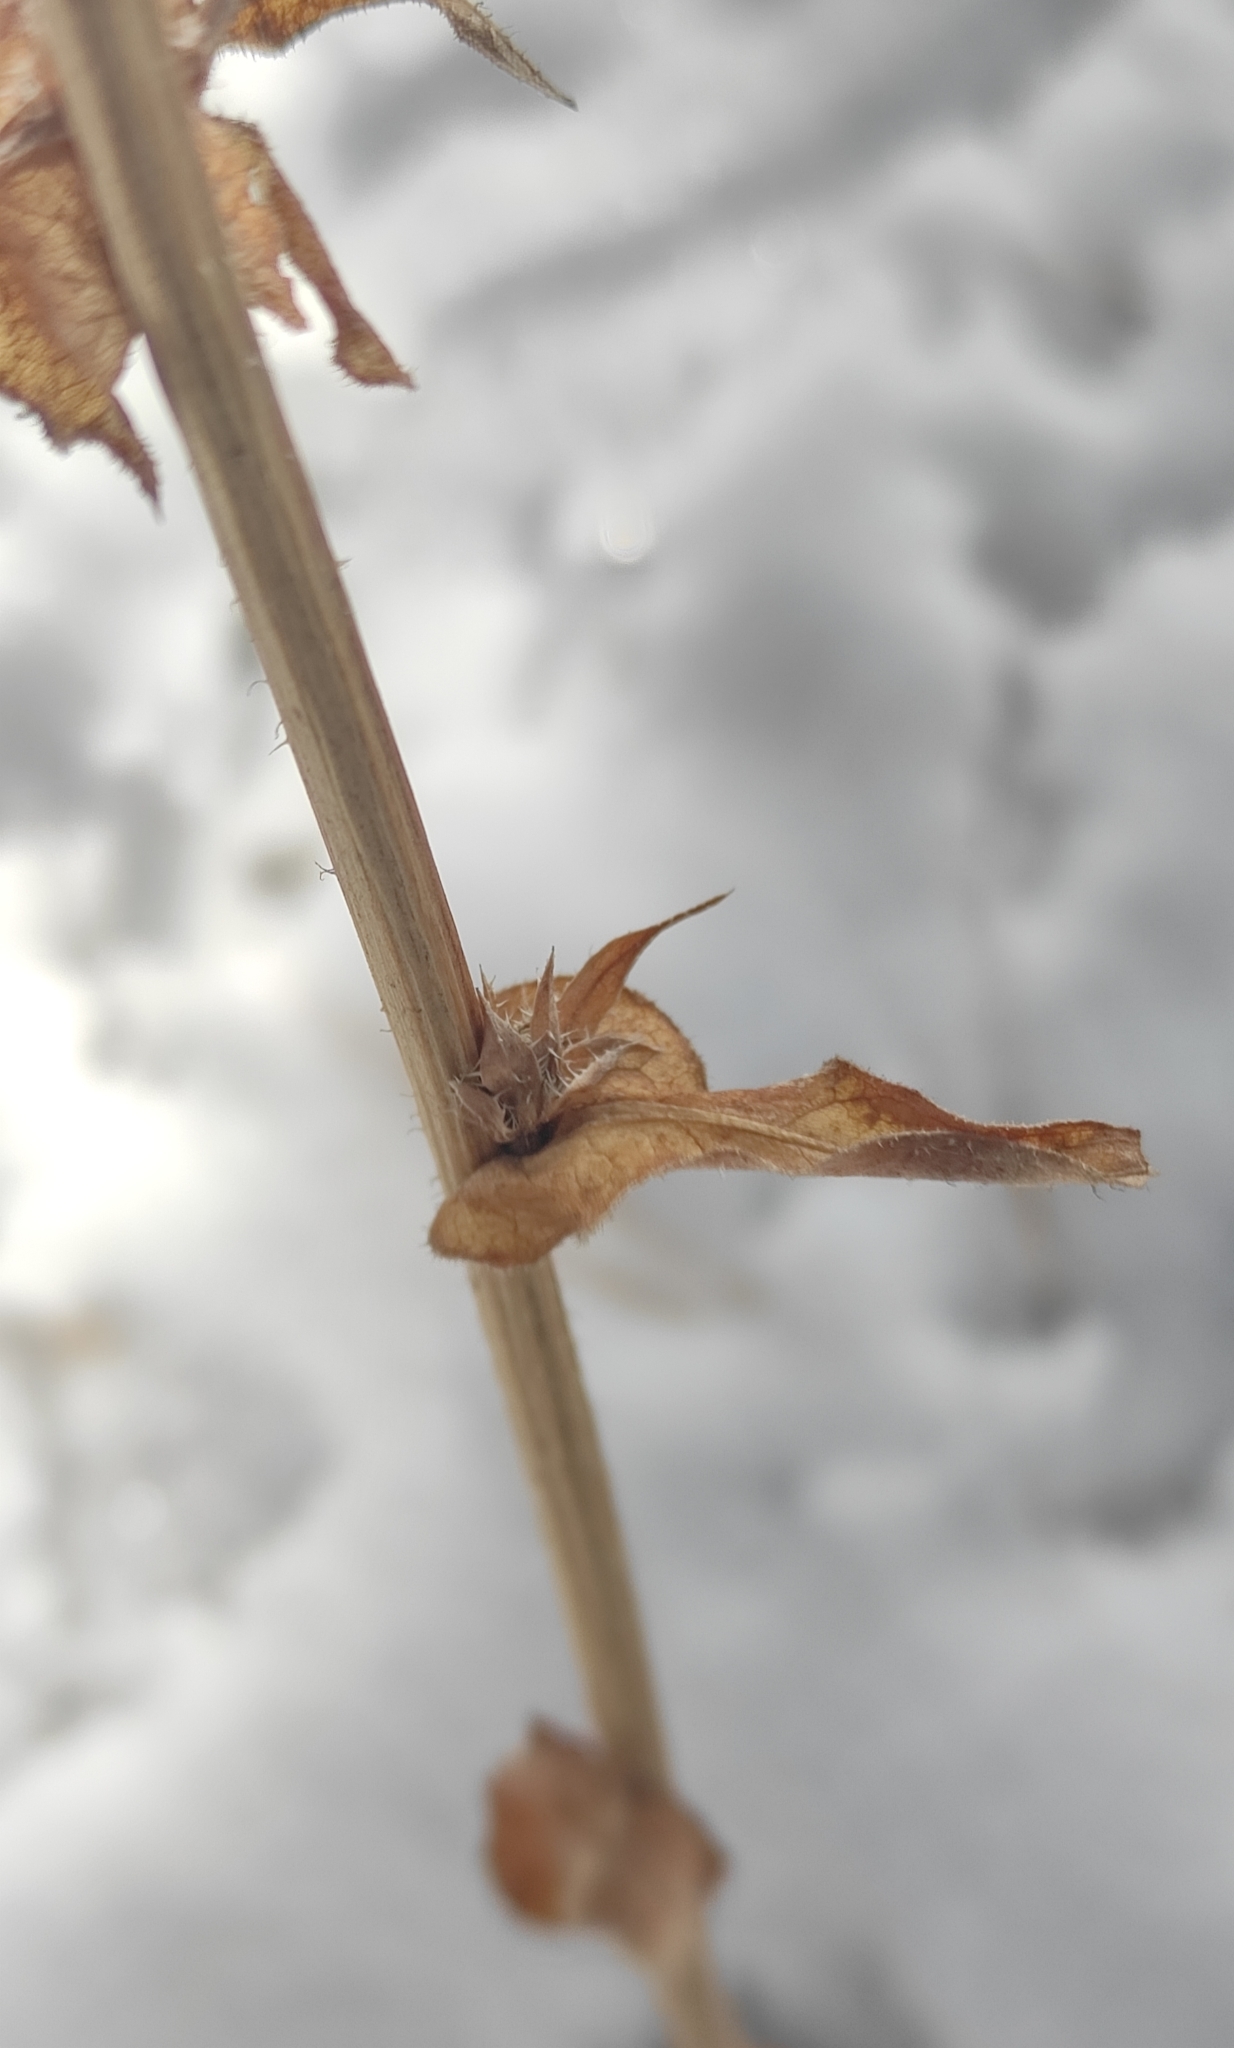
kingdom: Plantae
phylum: Tracheophyta
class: Magnoliopsida
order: Asterales
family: Asteraceae
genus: Cichorium
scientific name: Cichorium intybus
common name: Chicory
